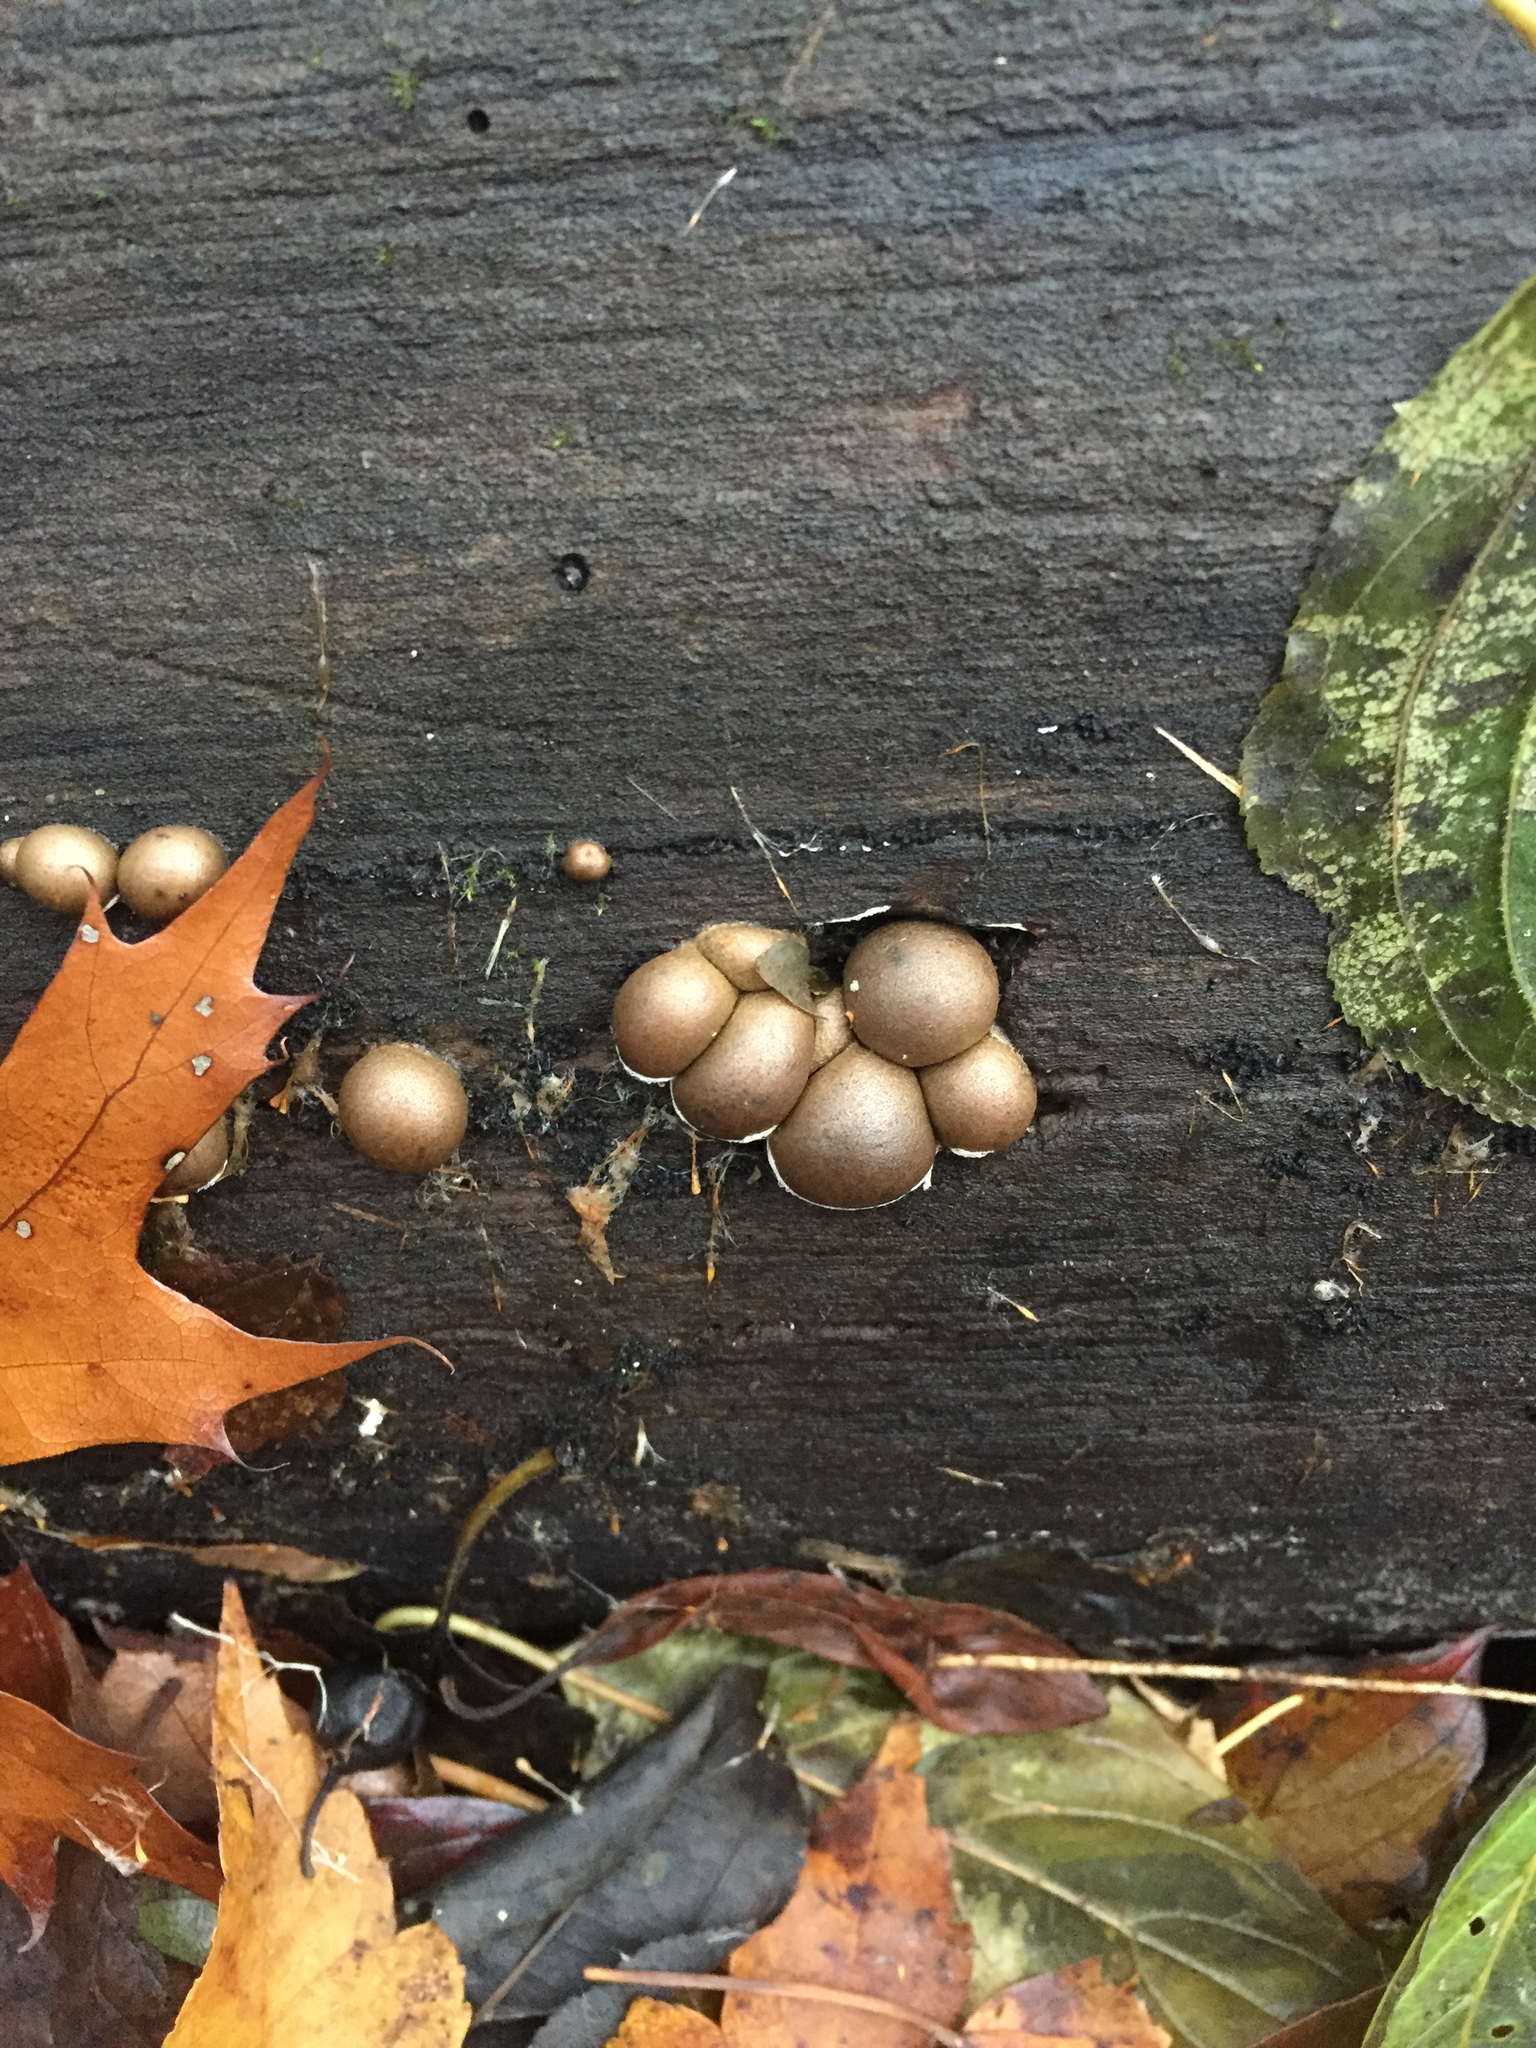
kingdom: Protozoa
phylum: Mycetozoa
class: Myxomycetes
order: Cribrariales
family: Tubiferaceae
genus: Lycogala
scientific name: Lycogala epidendrum
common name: Wolf's milk
